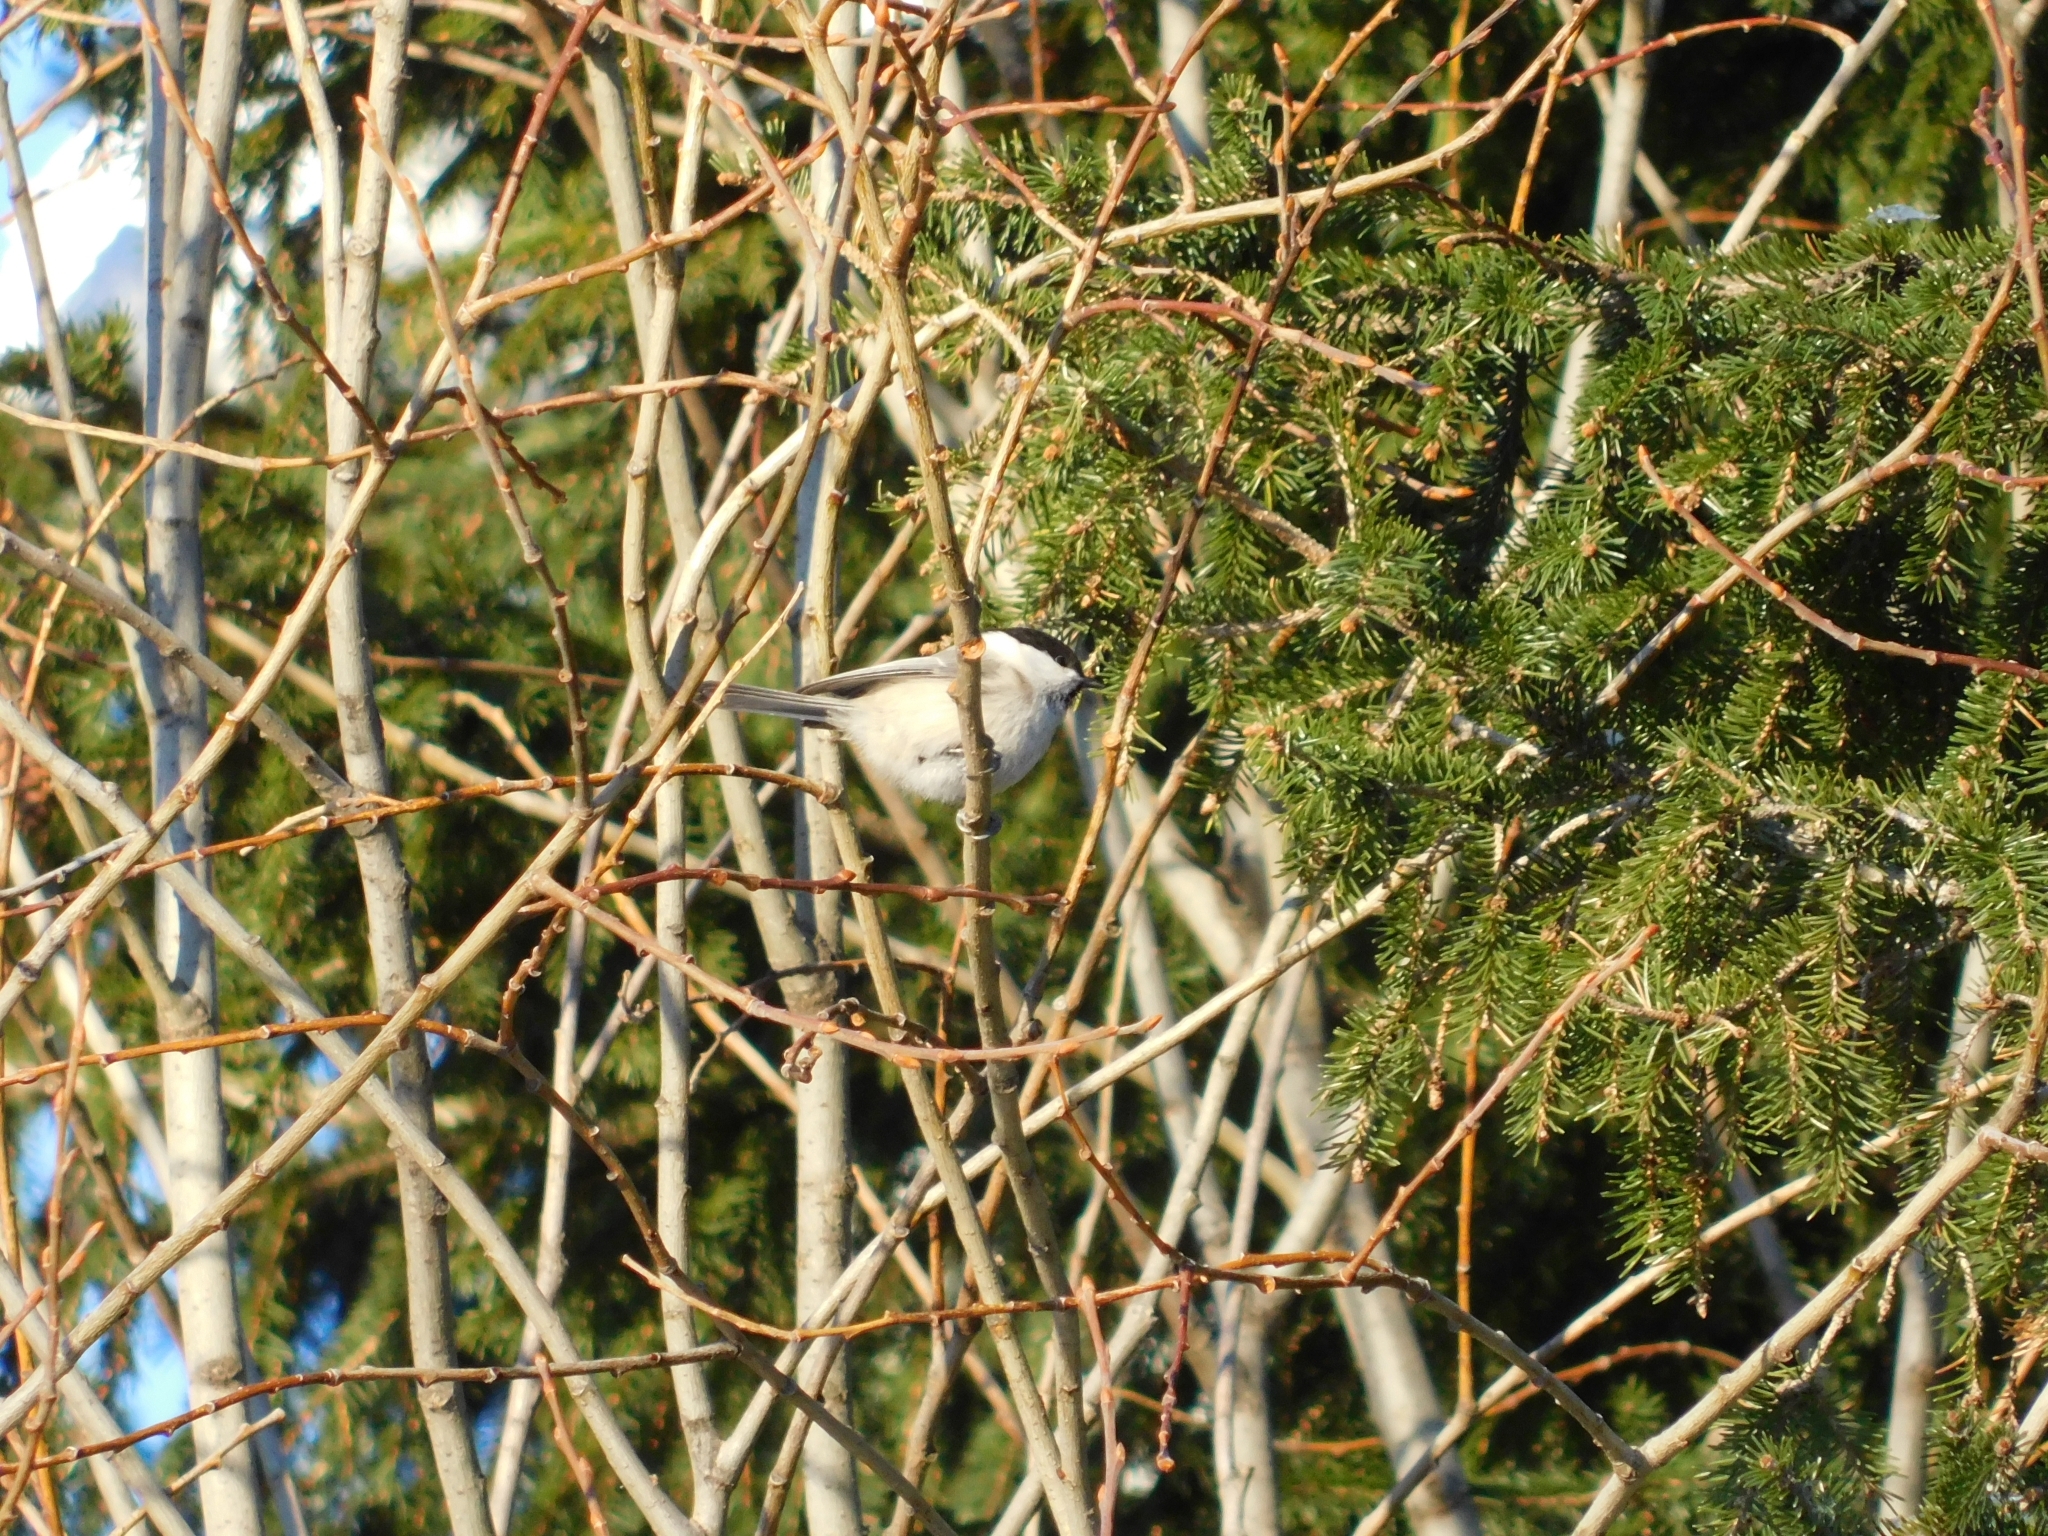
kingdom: Animalia
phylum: Chordata
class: Aves
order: Passeriformes
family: Paridae
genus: Poecile
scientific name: Poecile montanus
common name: Willow tit
